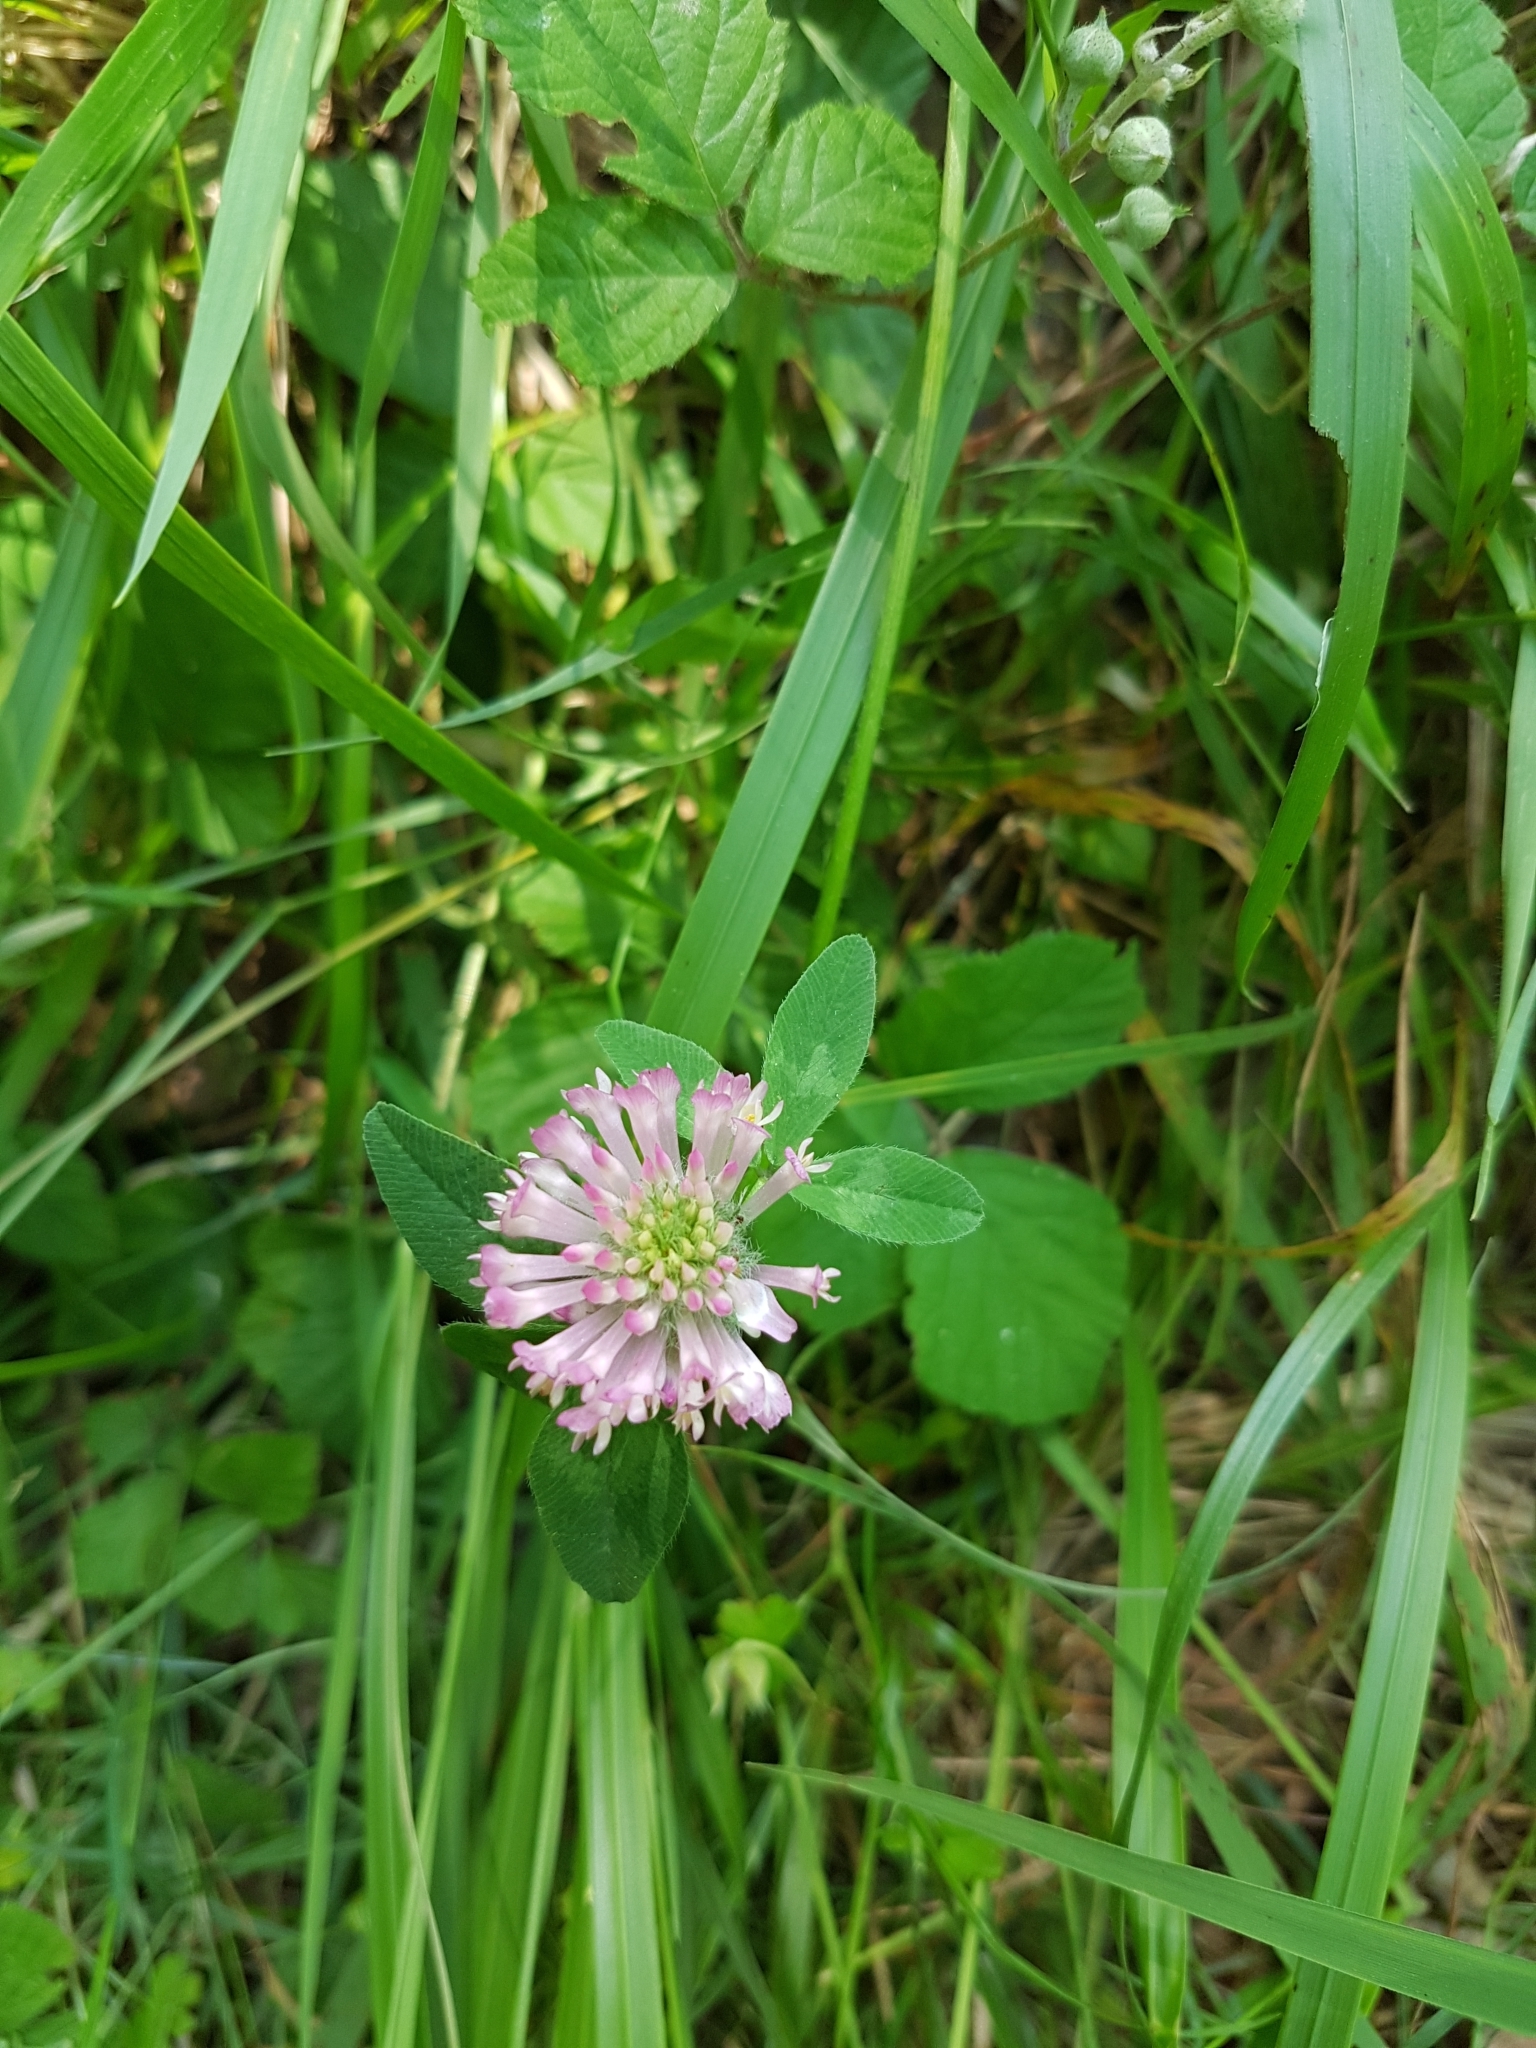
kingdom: Plantae
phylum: Tracheophyta
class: Magnoliopsida
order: Fabales
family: Fabaceae
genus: Trifolium
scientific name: Trifolium pratense
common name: Red clover
